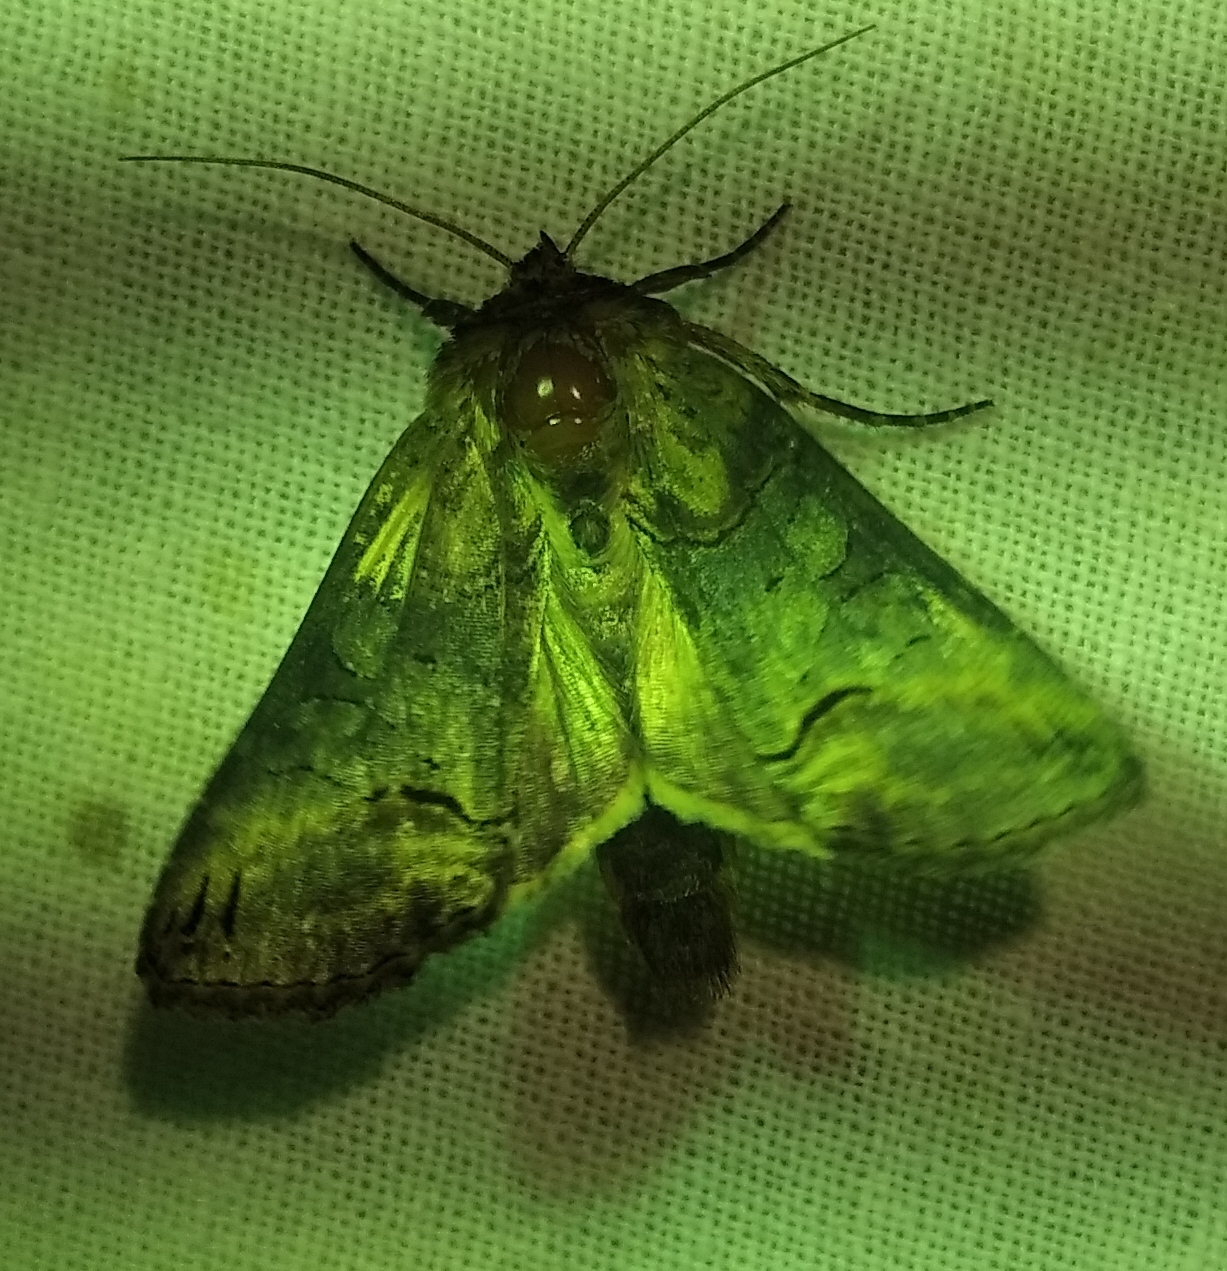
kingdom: Animalia
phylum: Arthropoda
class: Insecta
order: Lepidoptera
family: Noctuidae
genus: Abrostola
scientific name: Abrostola triplasia
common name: Dark spectacle
